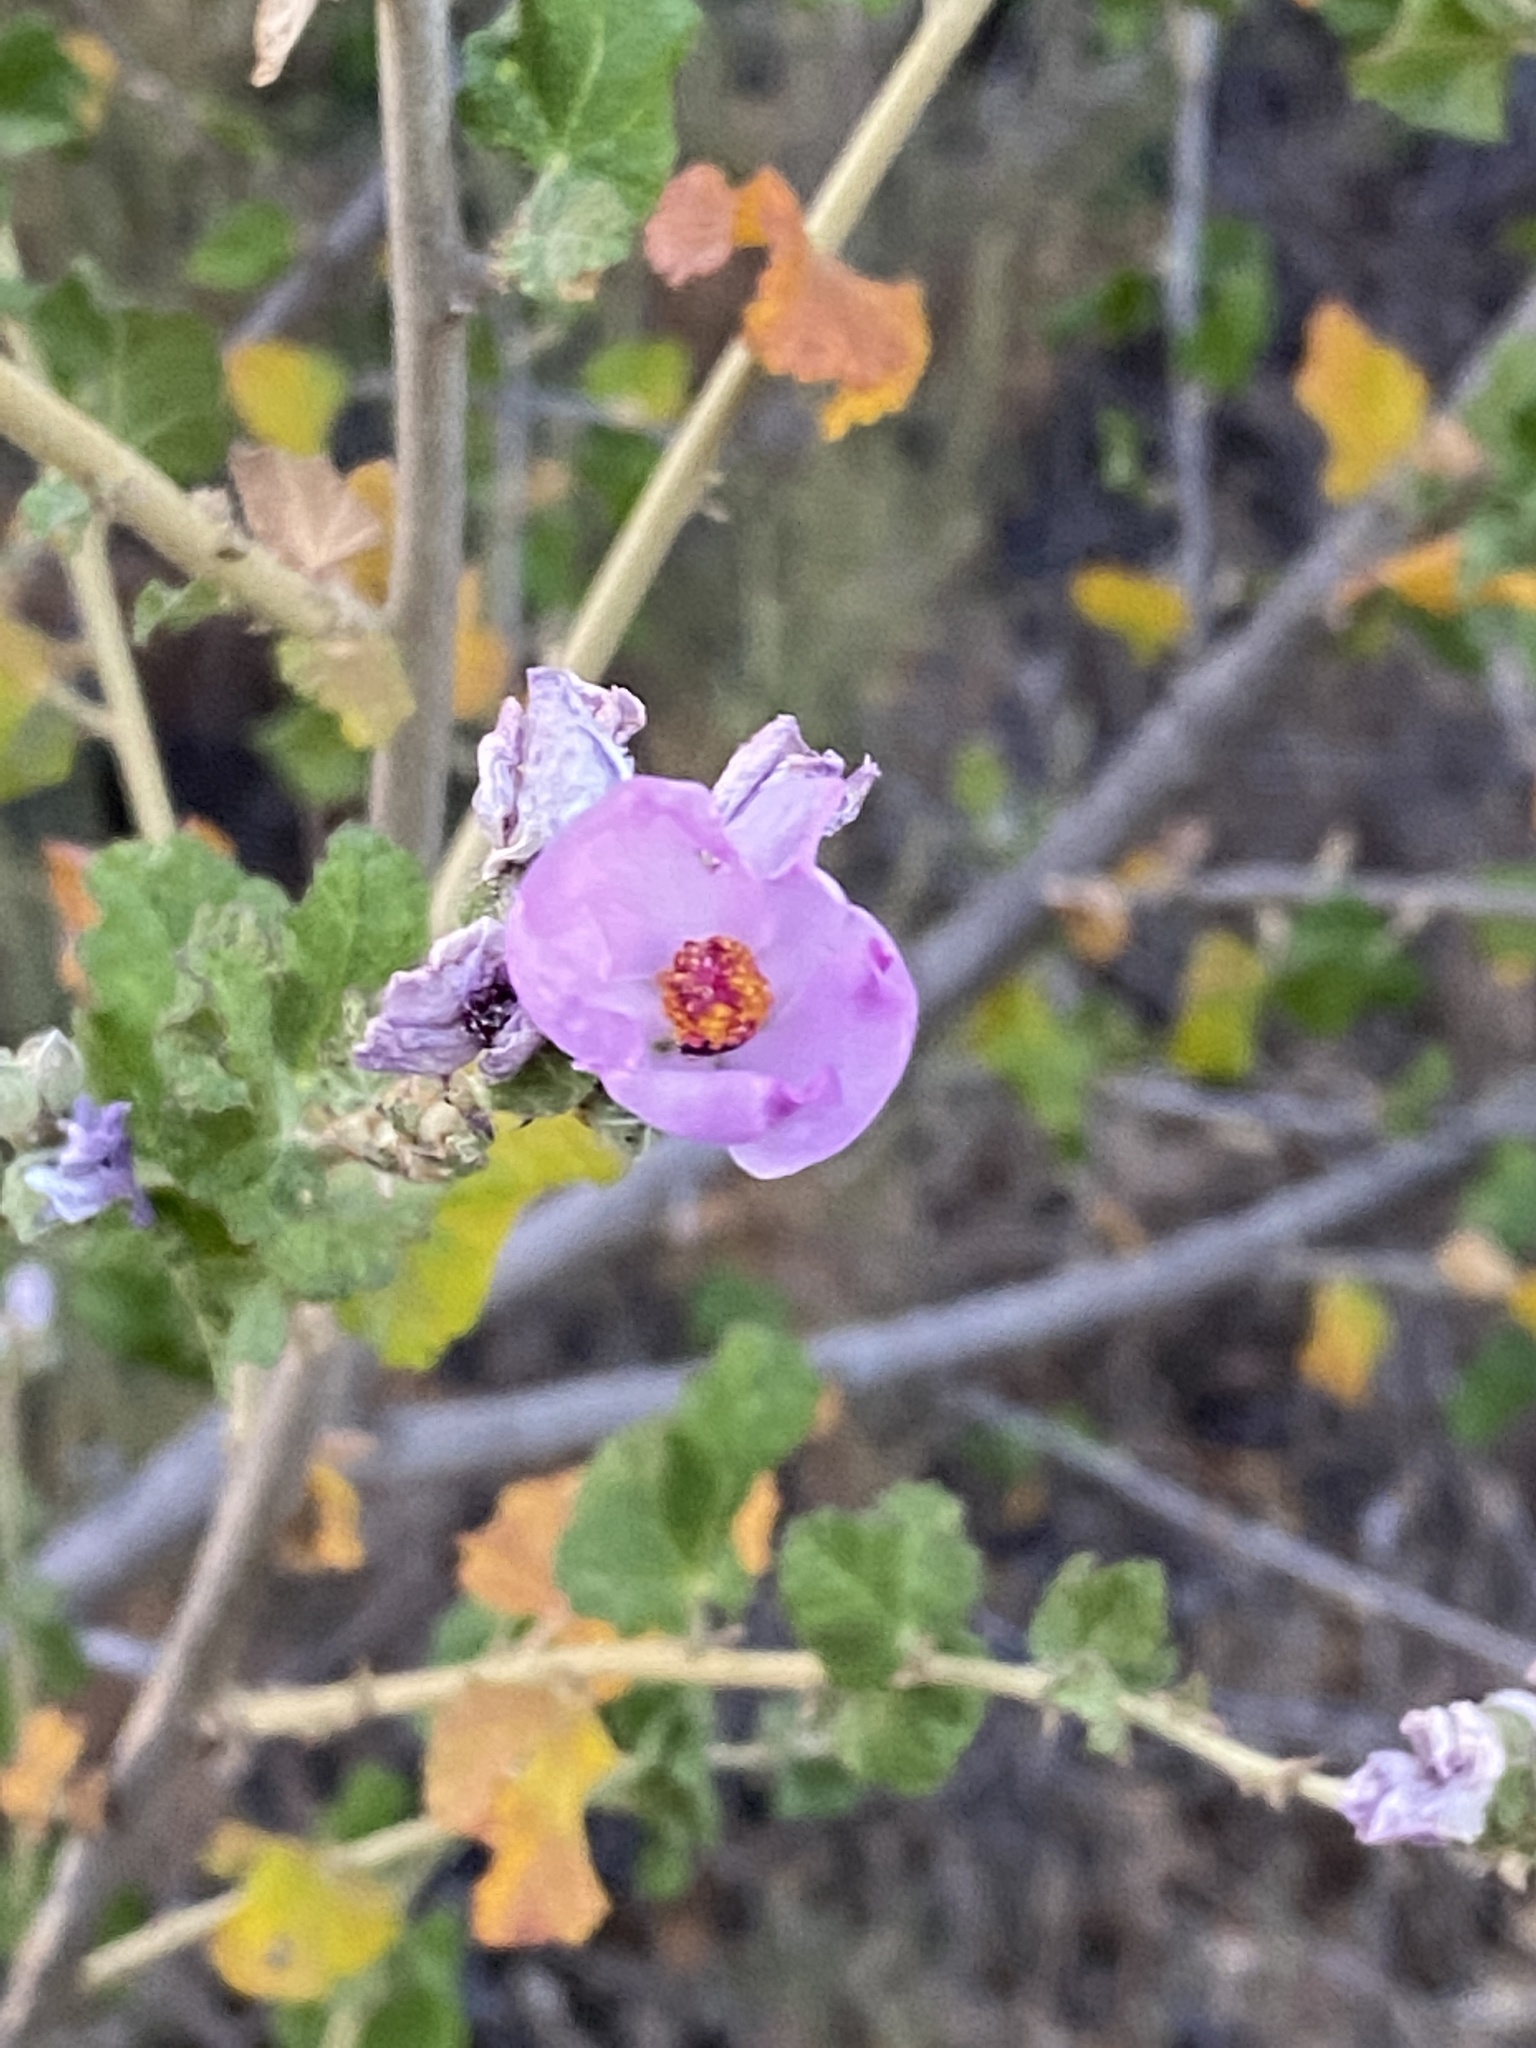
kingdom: Plantae
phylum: Tracheophyta
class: Magnoliopsida
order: Malvales
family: Malvaceae
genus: Malacothamnus
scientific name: Malacothamnus fasciculatus
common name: Sant cruz island bush-mallow
